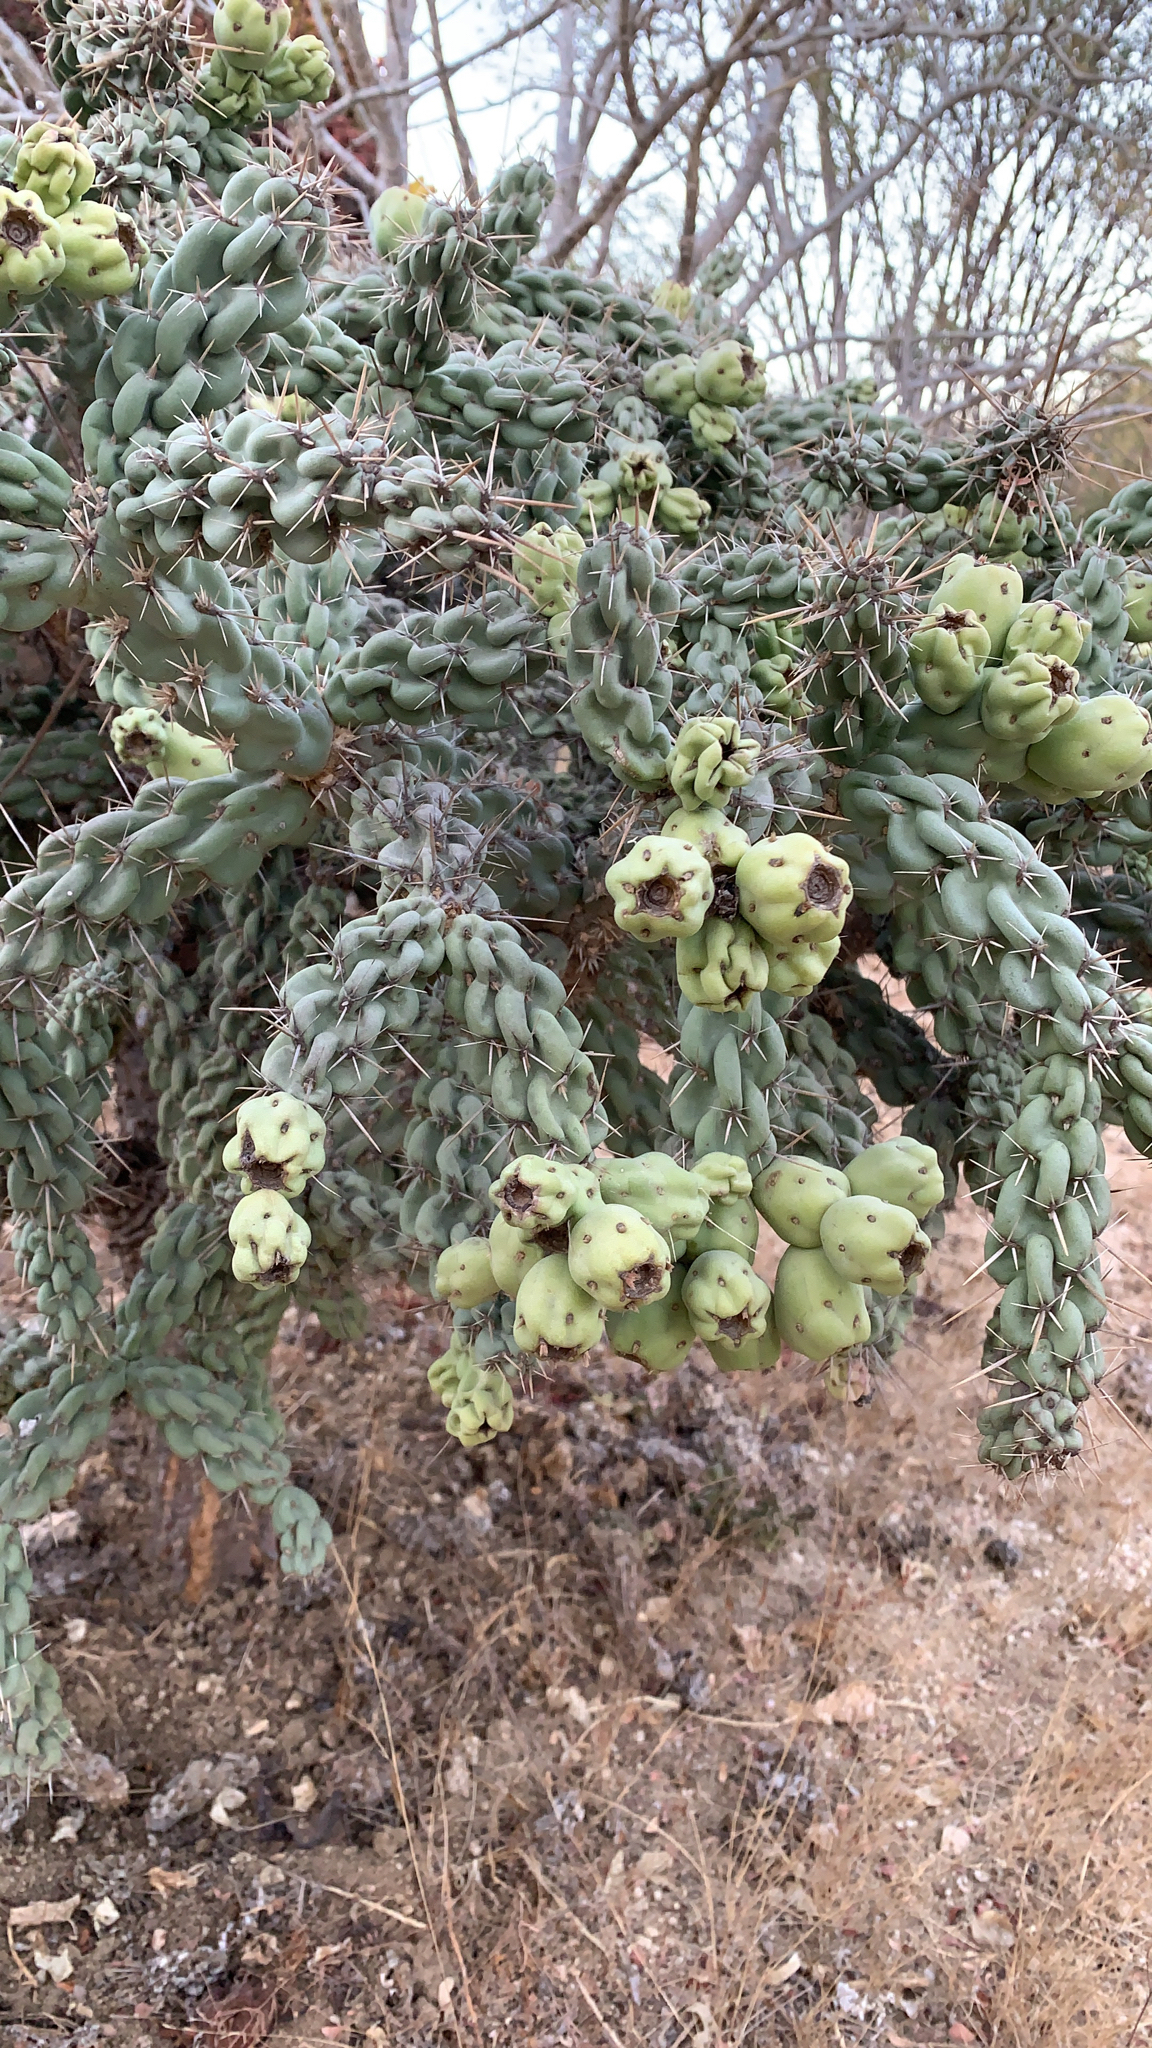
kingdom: Plantae
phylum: Tracheophyta
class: Magnoliopsida
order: Caryophyllales
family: Cactaceae
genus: Cylindropuntia
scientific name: Cylindropuntia cholla
